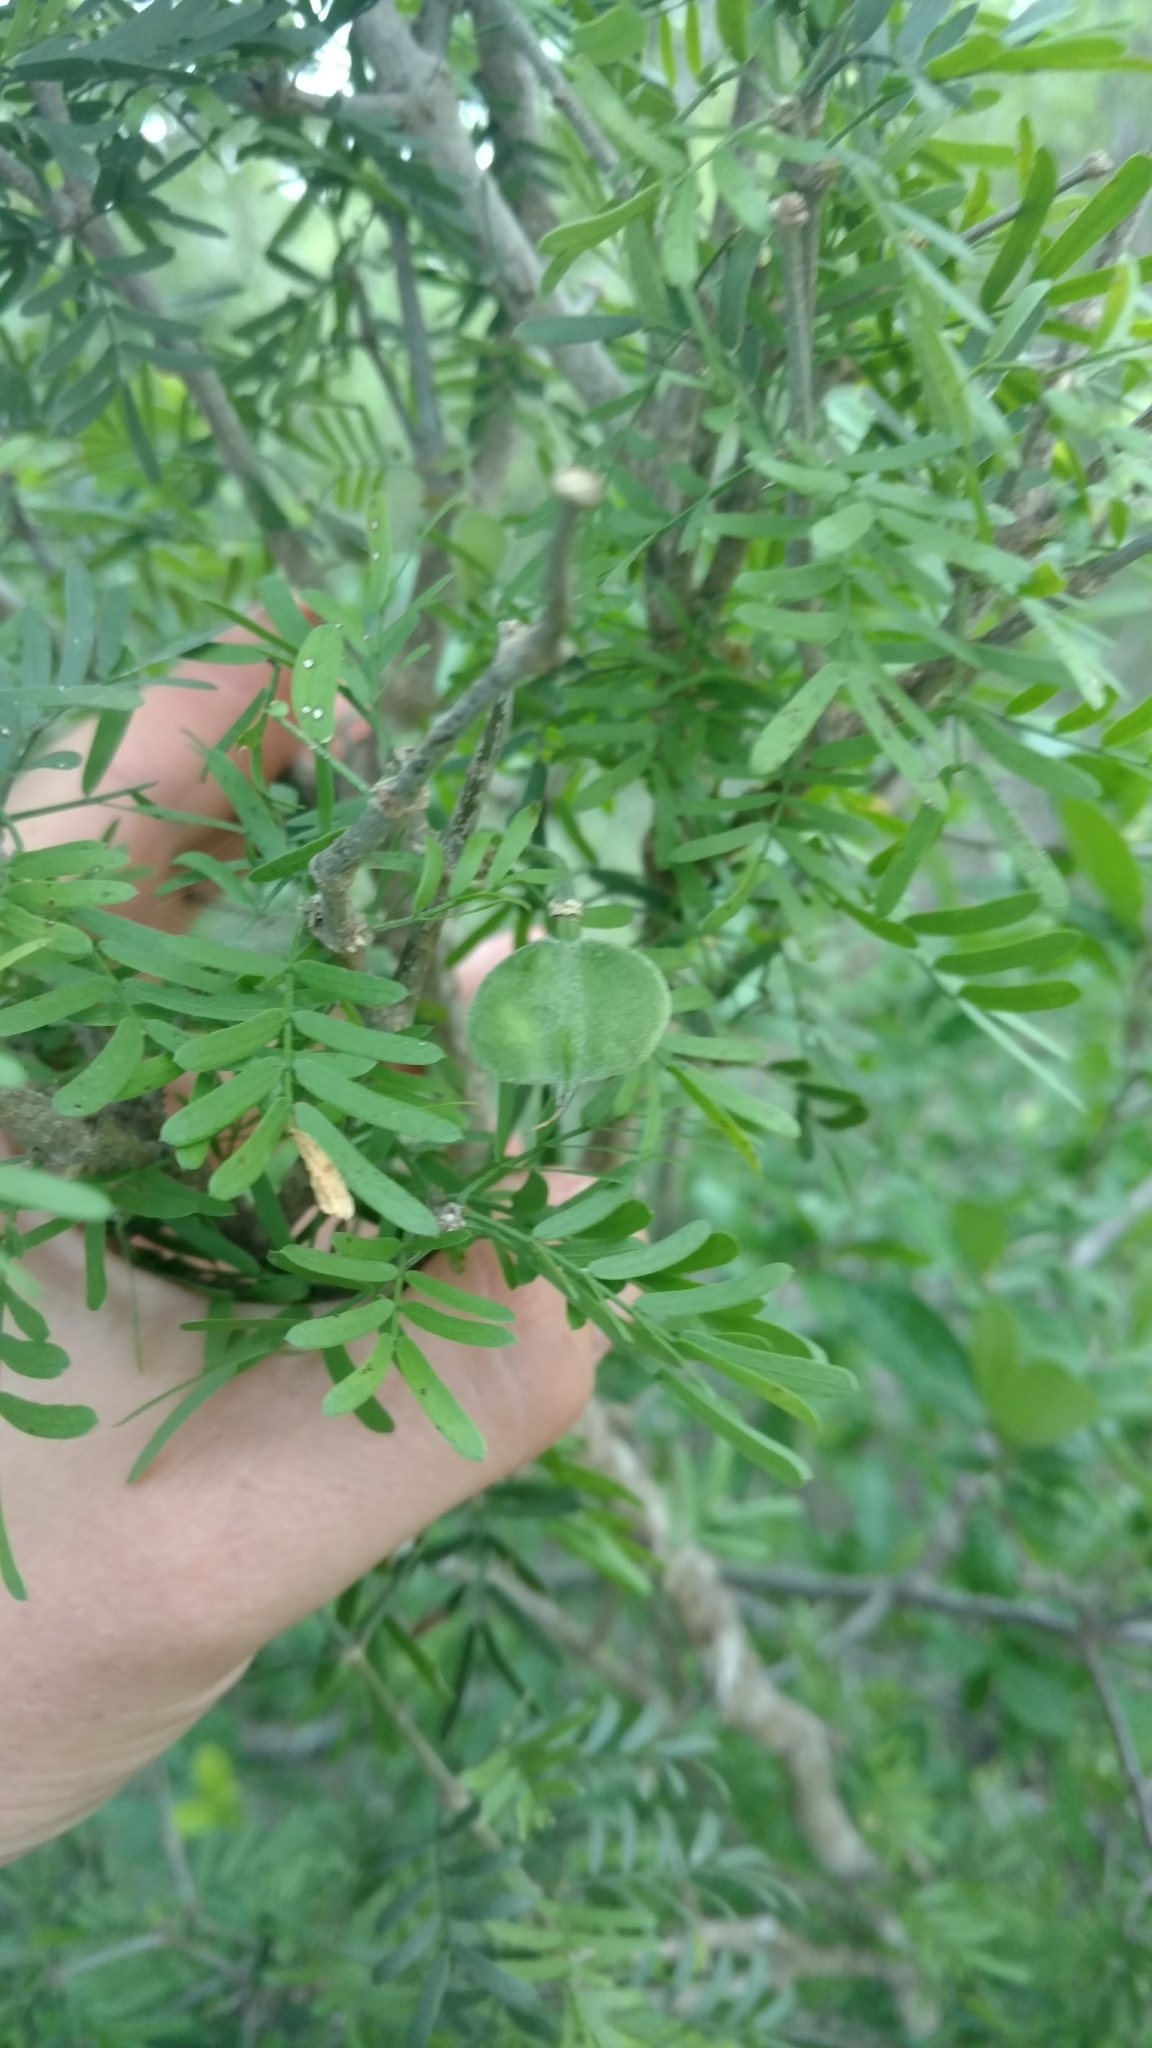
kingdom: Plantae
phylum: Tracheophyta
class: Magnoliopsida
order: Zygophyllales
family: Zygophyllaceae
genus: Porlieria
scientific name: Porlieria angustifolia
